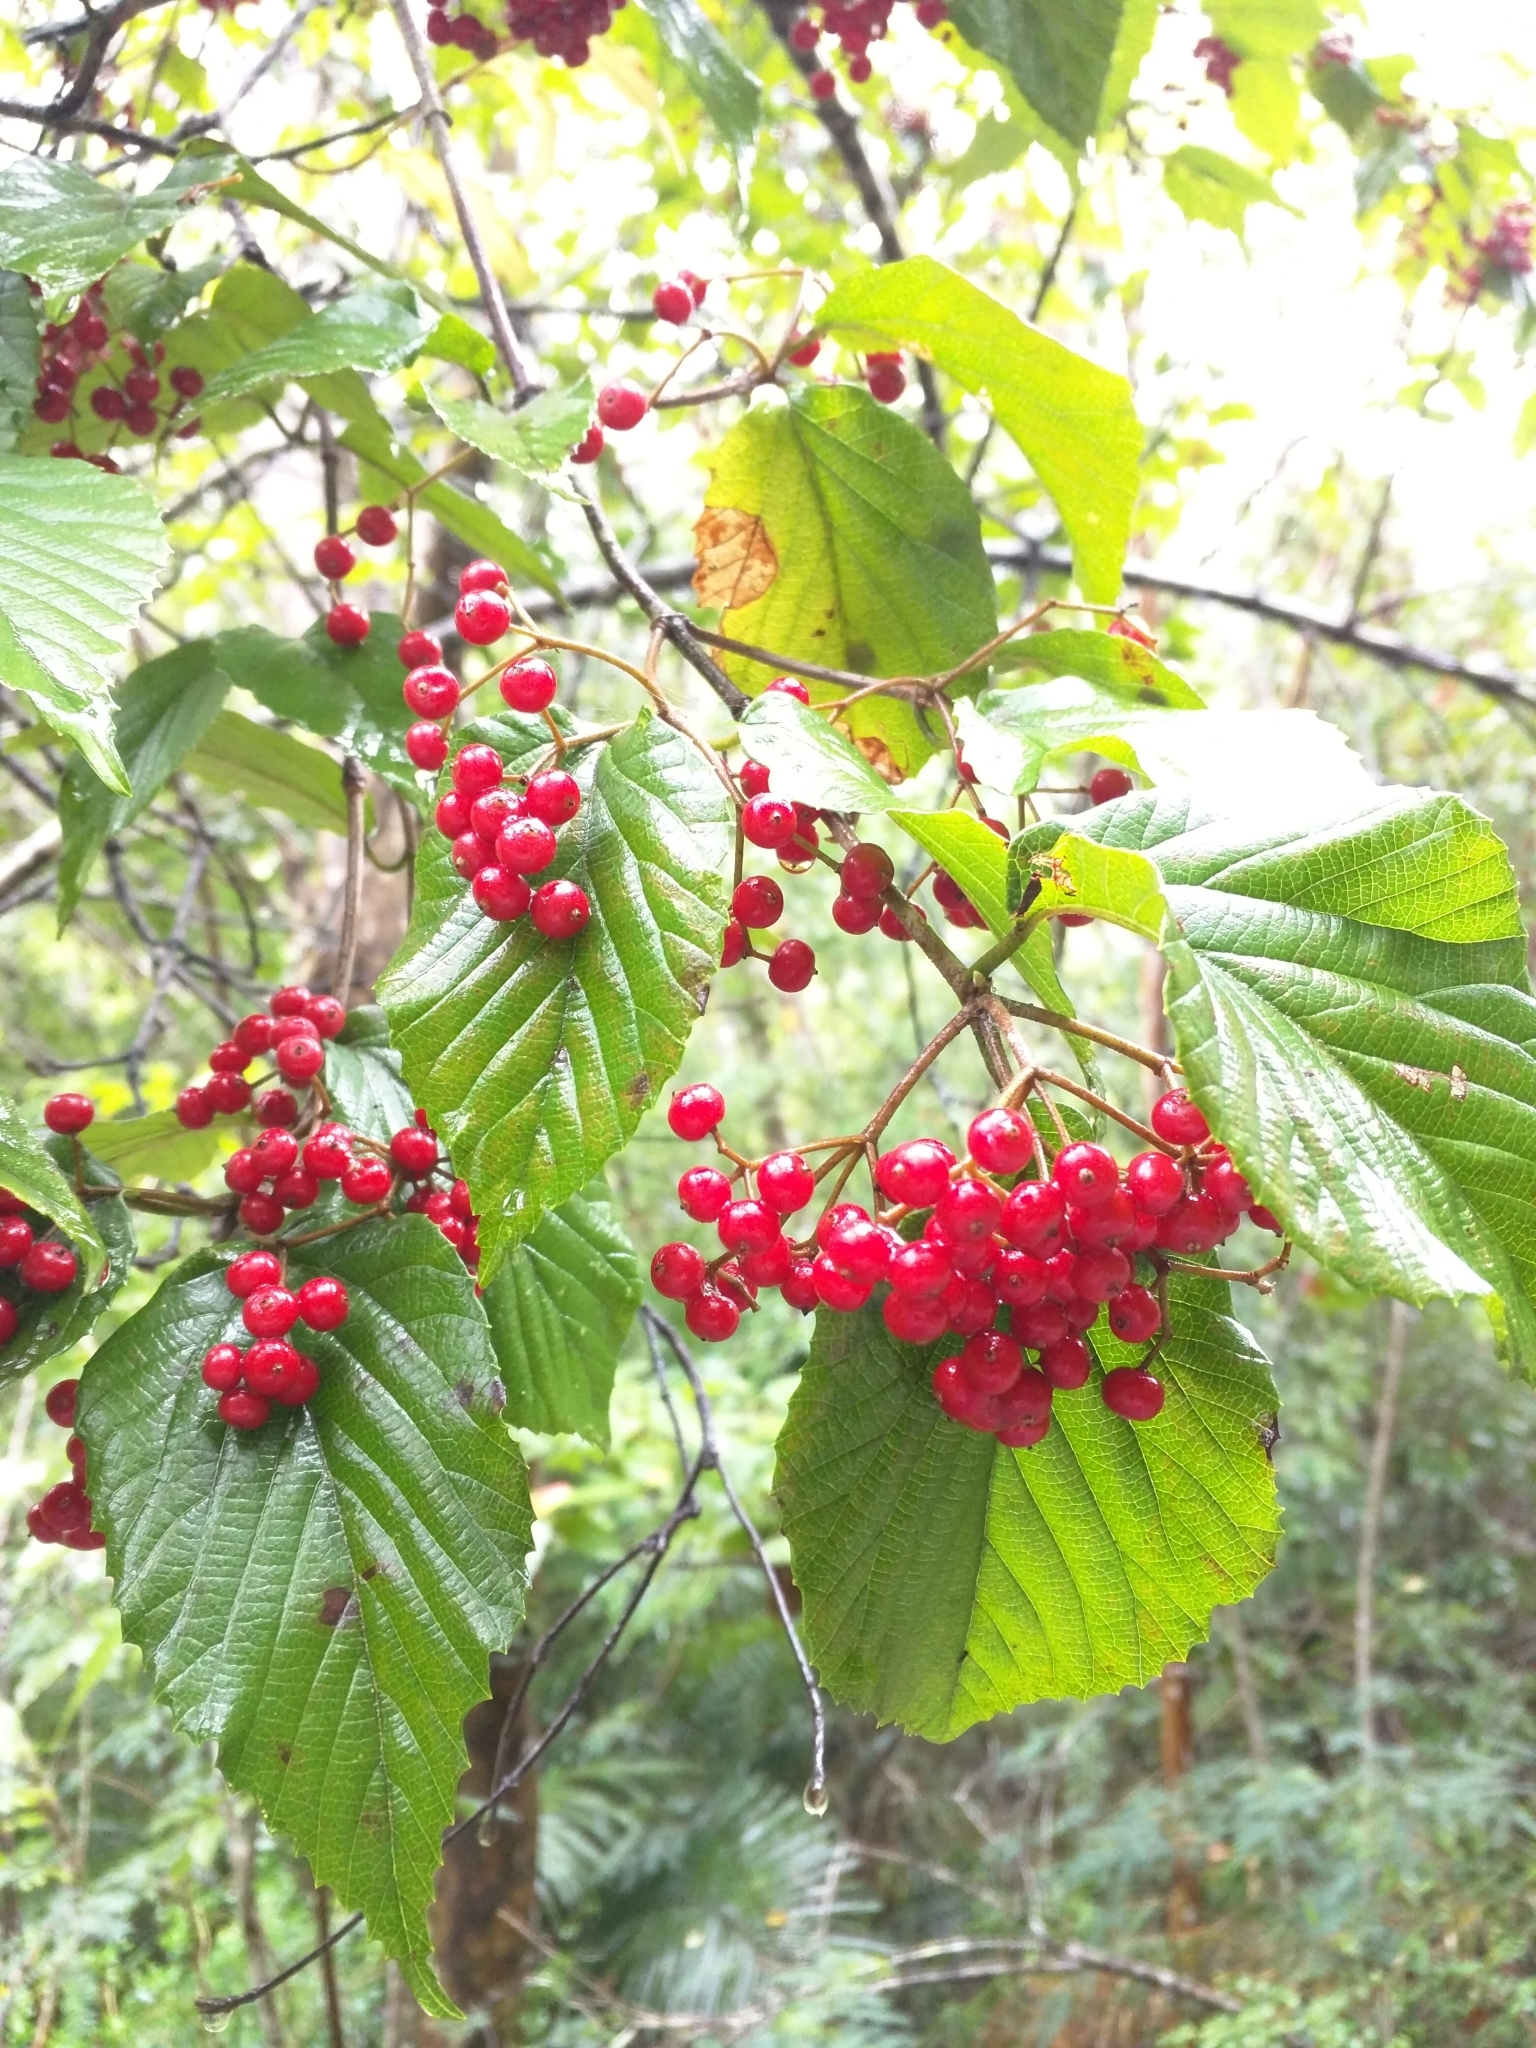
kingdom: Plantae
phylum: Tracheophyta
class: Magnoliopsida
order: Dipsacales
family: Viburnaceae
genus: Viburnum
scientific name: Viburnum luzonicum
